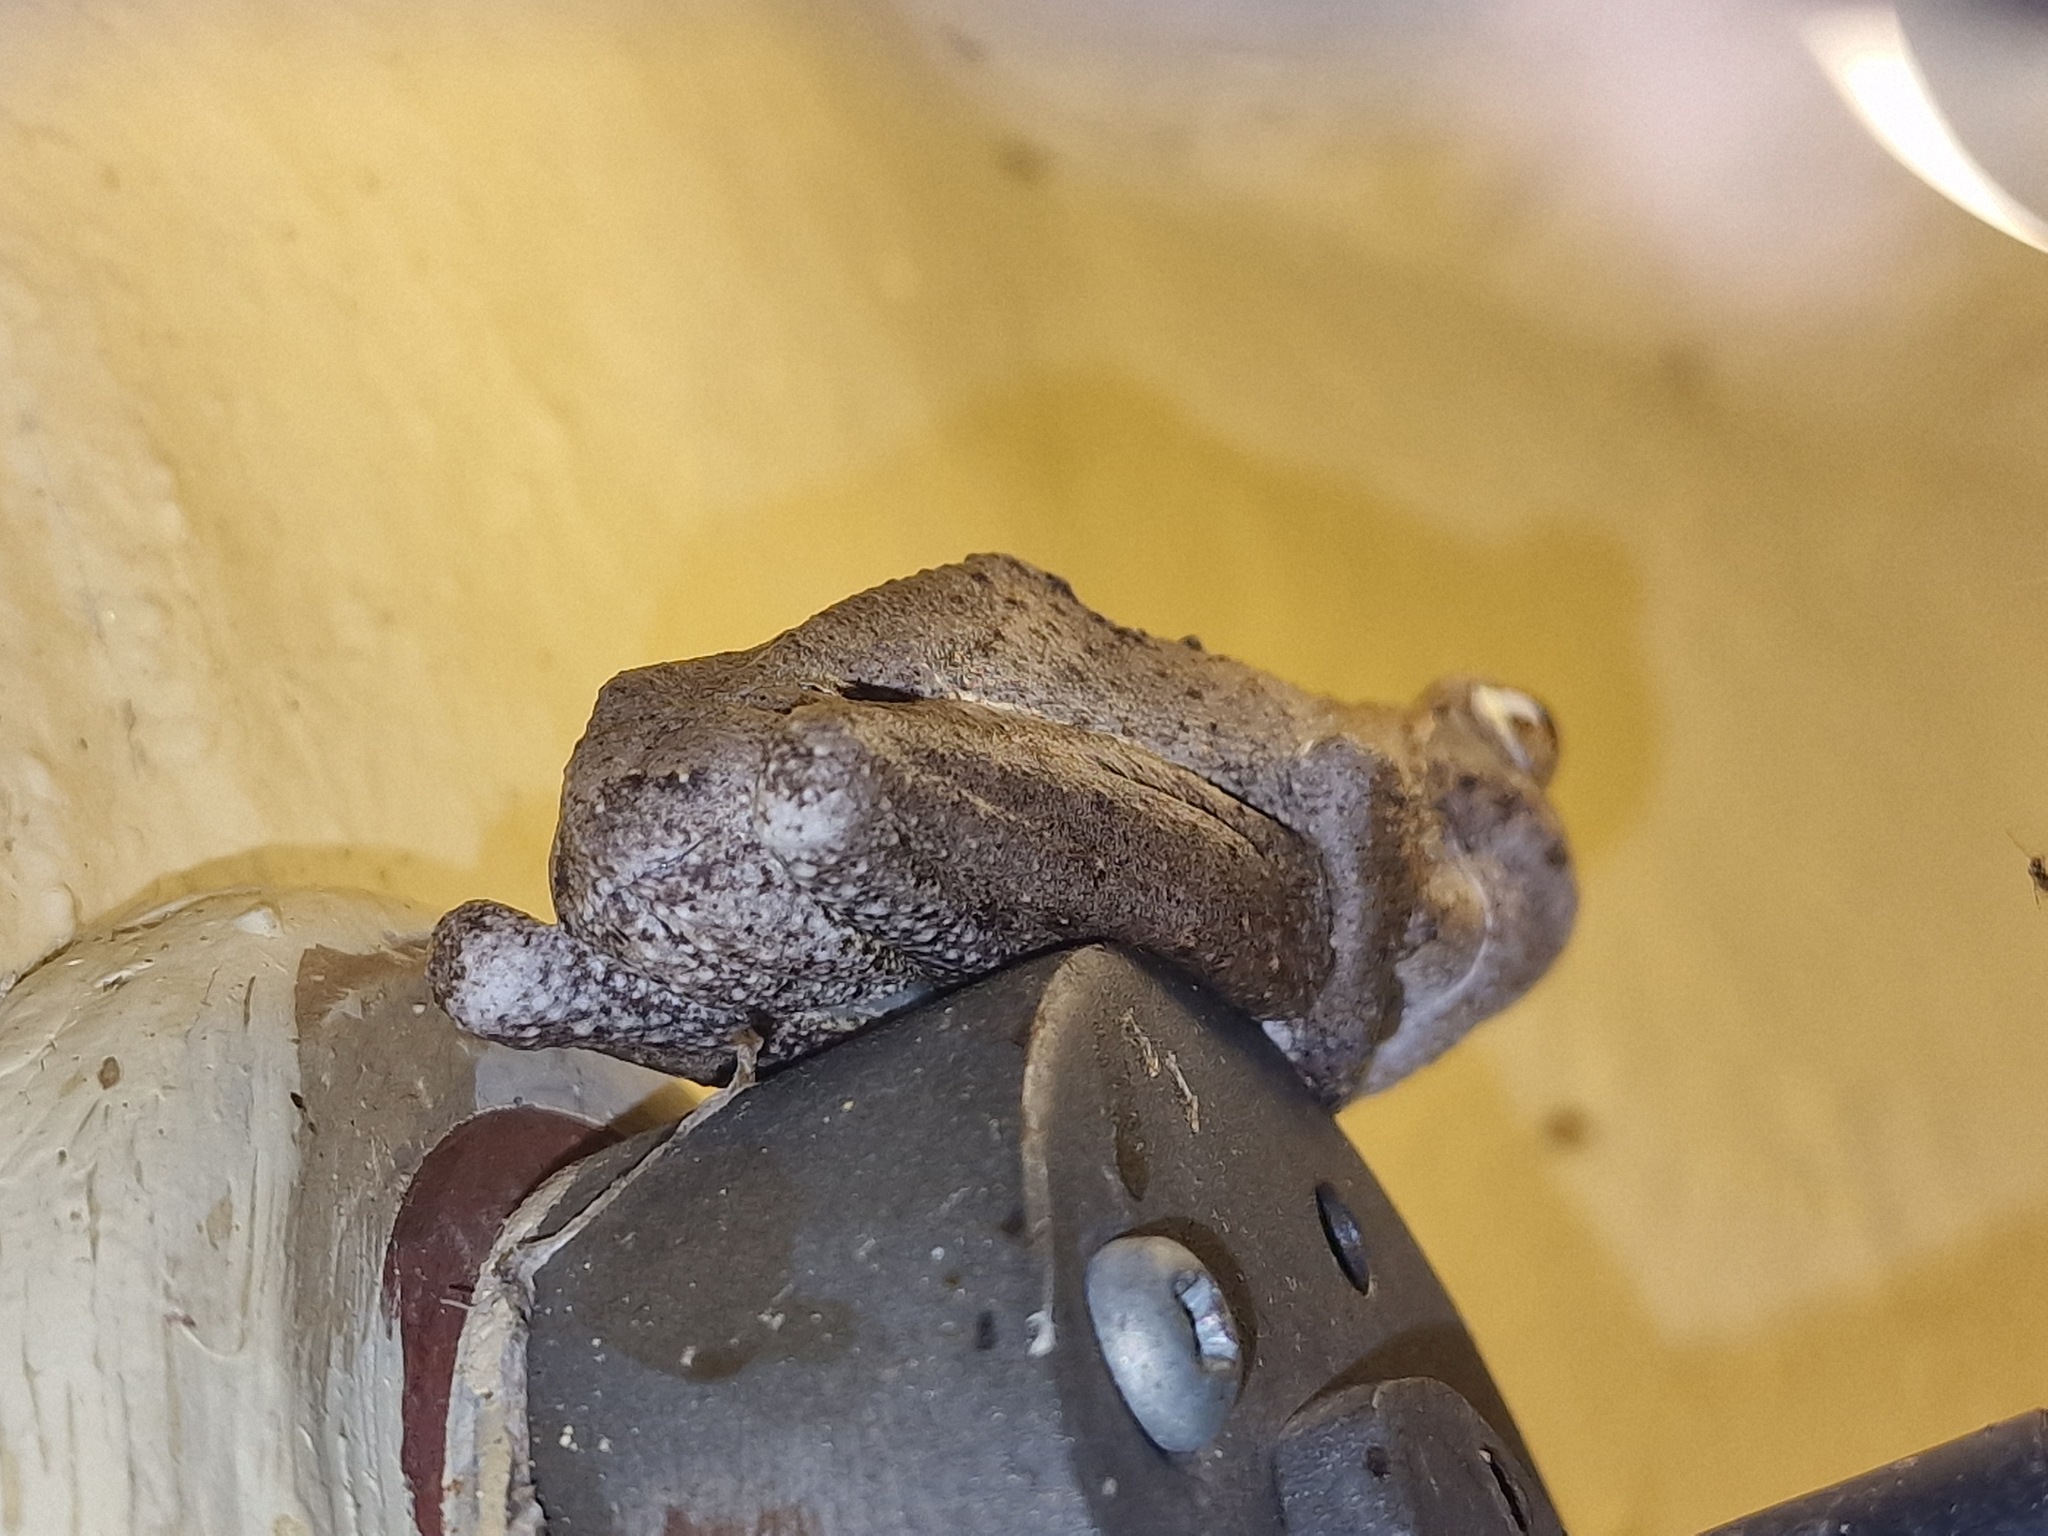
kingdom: Animalia
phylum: Chordata
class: Amphibia
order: Anura
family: Rhacophoridae
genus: Chiromantis
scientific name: Chiromantis xerampelina
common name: African gray treefrog
